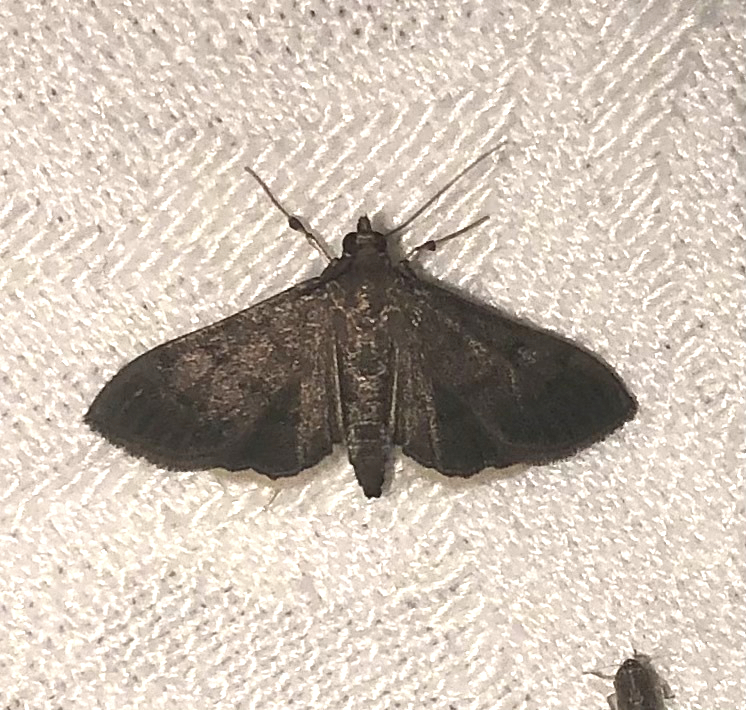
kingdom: Animalia
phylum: Arthropoda
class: Insecta
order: Lepidoptera
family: Crambidae
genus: Herpetogramma
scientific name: Herpetogramma phaeopteralis
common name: Dusky herpetogramma moth
